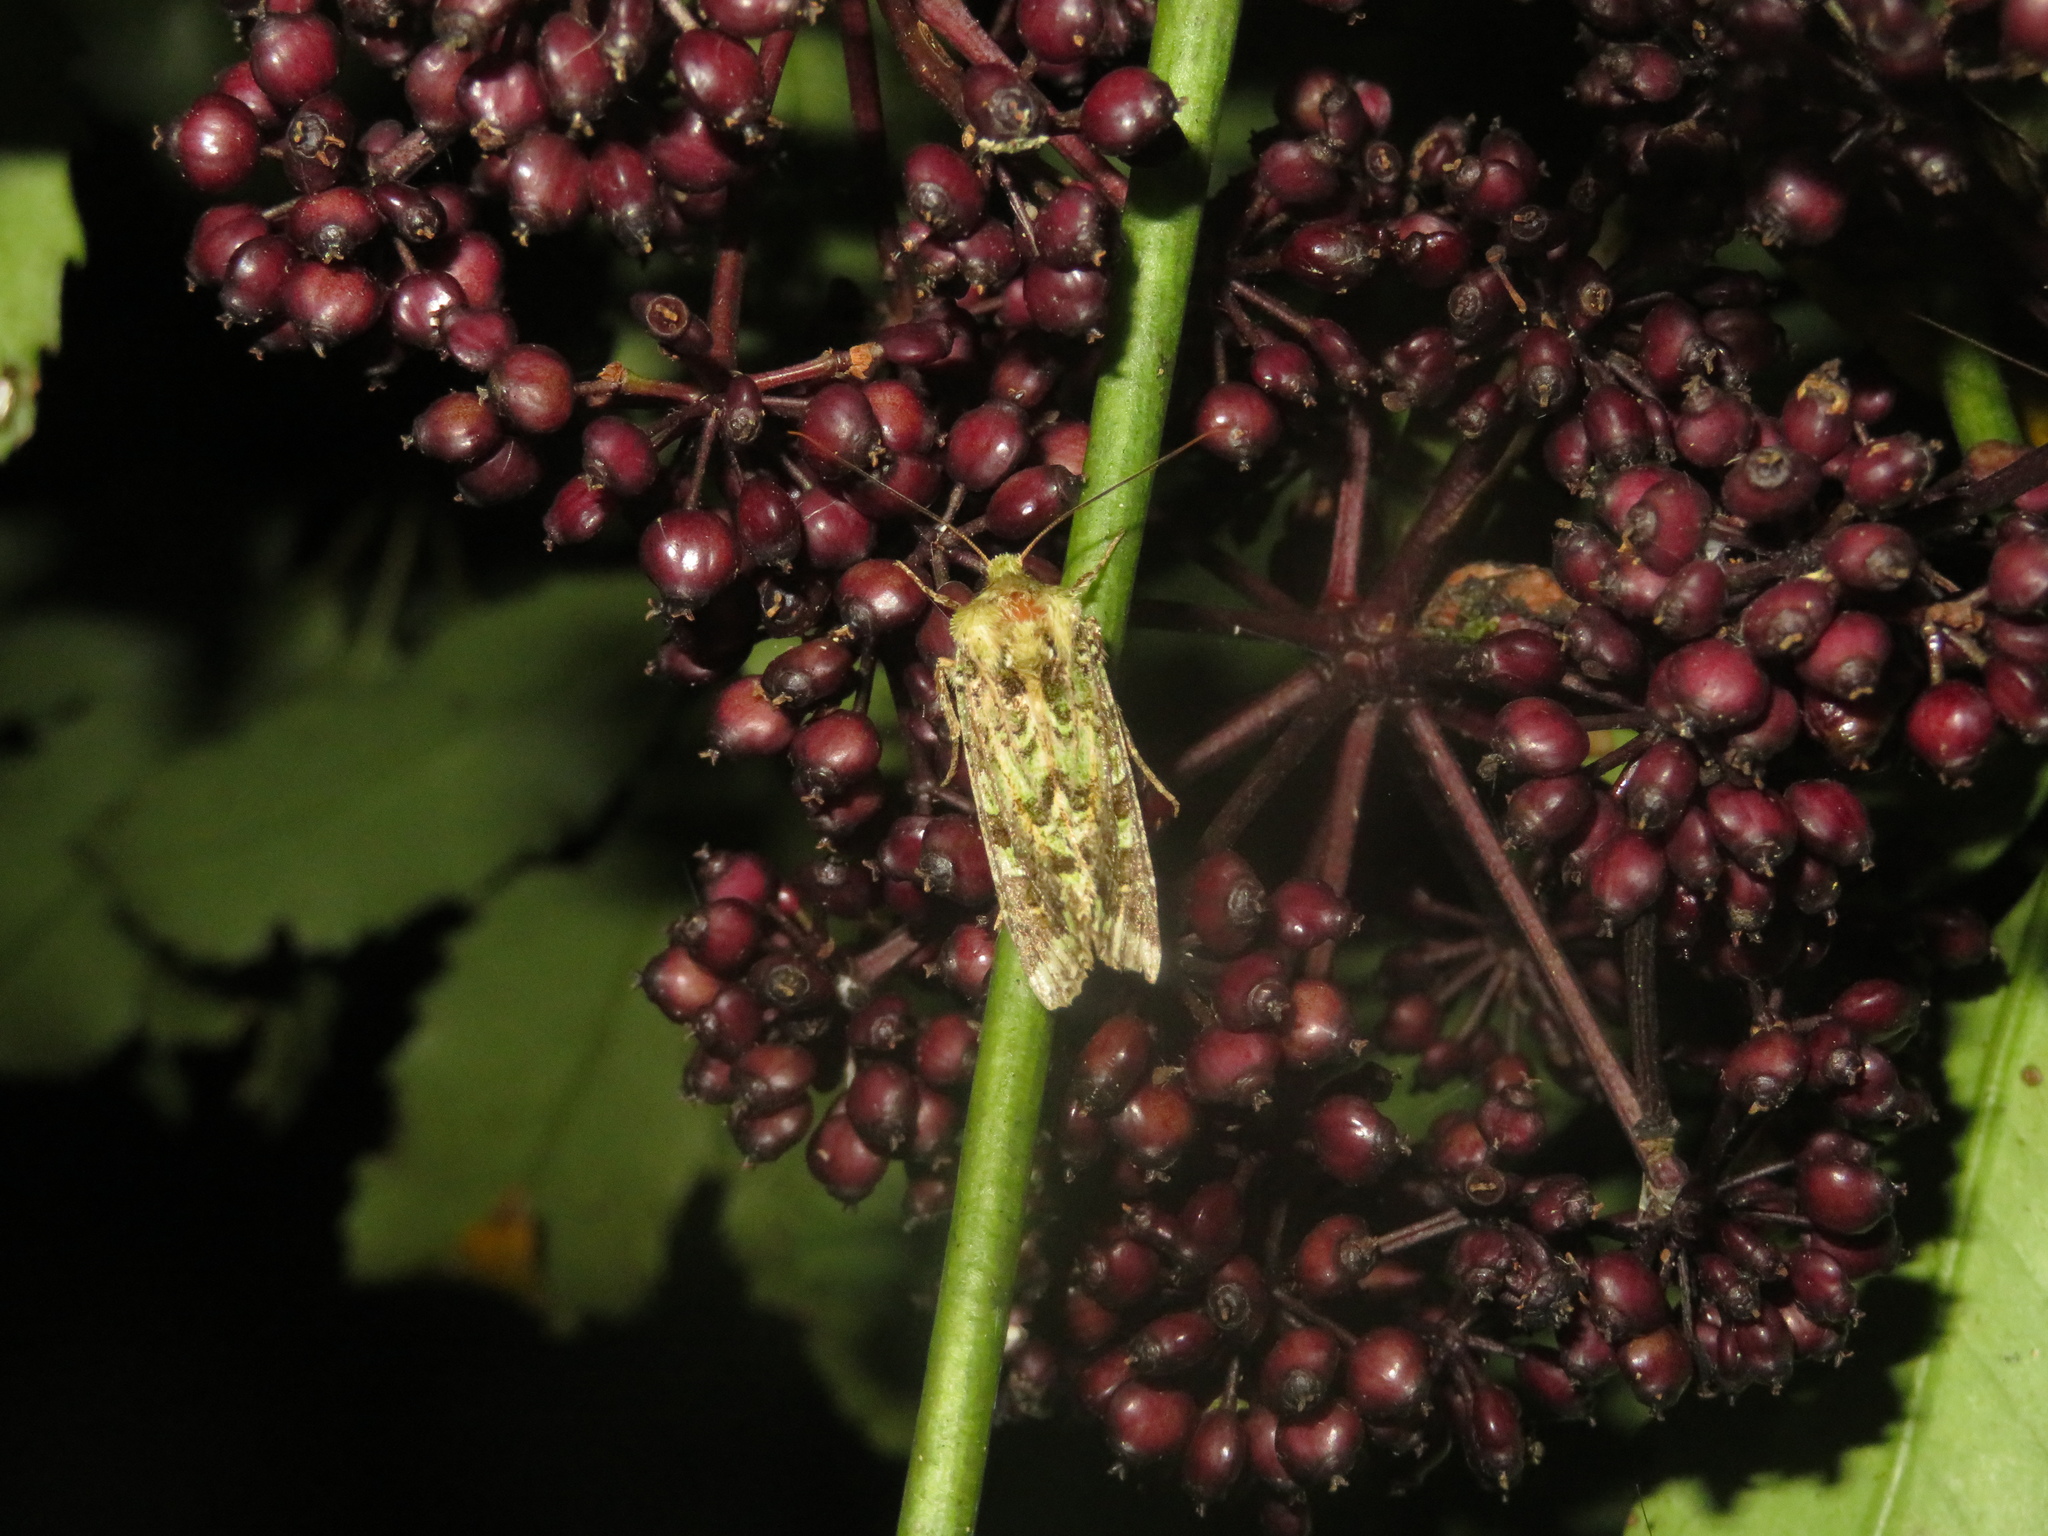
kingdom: Animalia
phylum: Arthropoda
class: Insecta
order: Lepidoptera
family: Noctuidae
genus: Feredayia
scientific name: Feredayia grammosa
